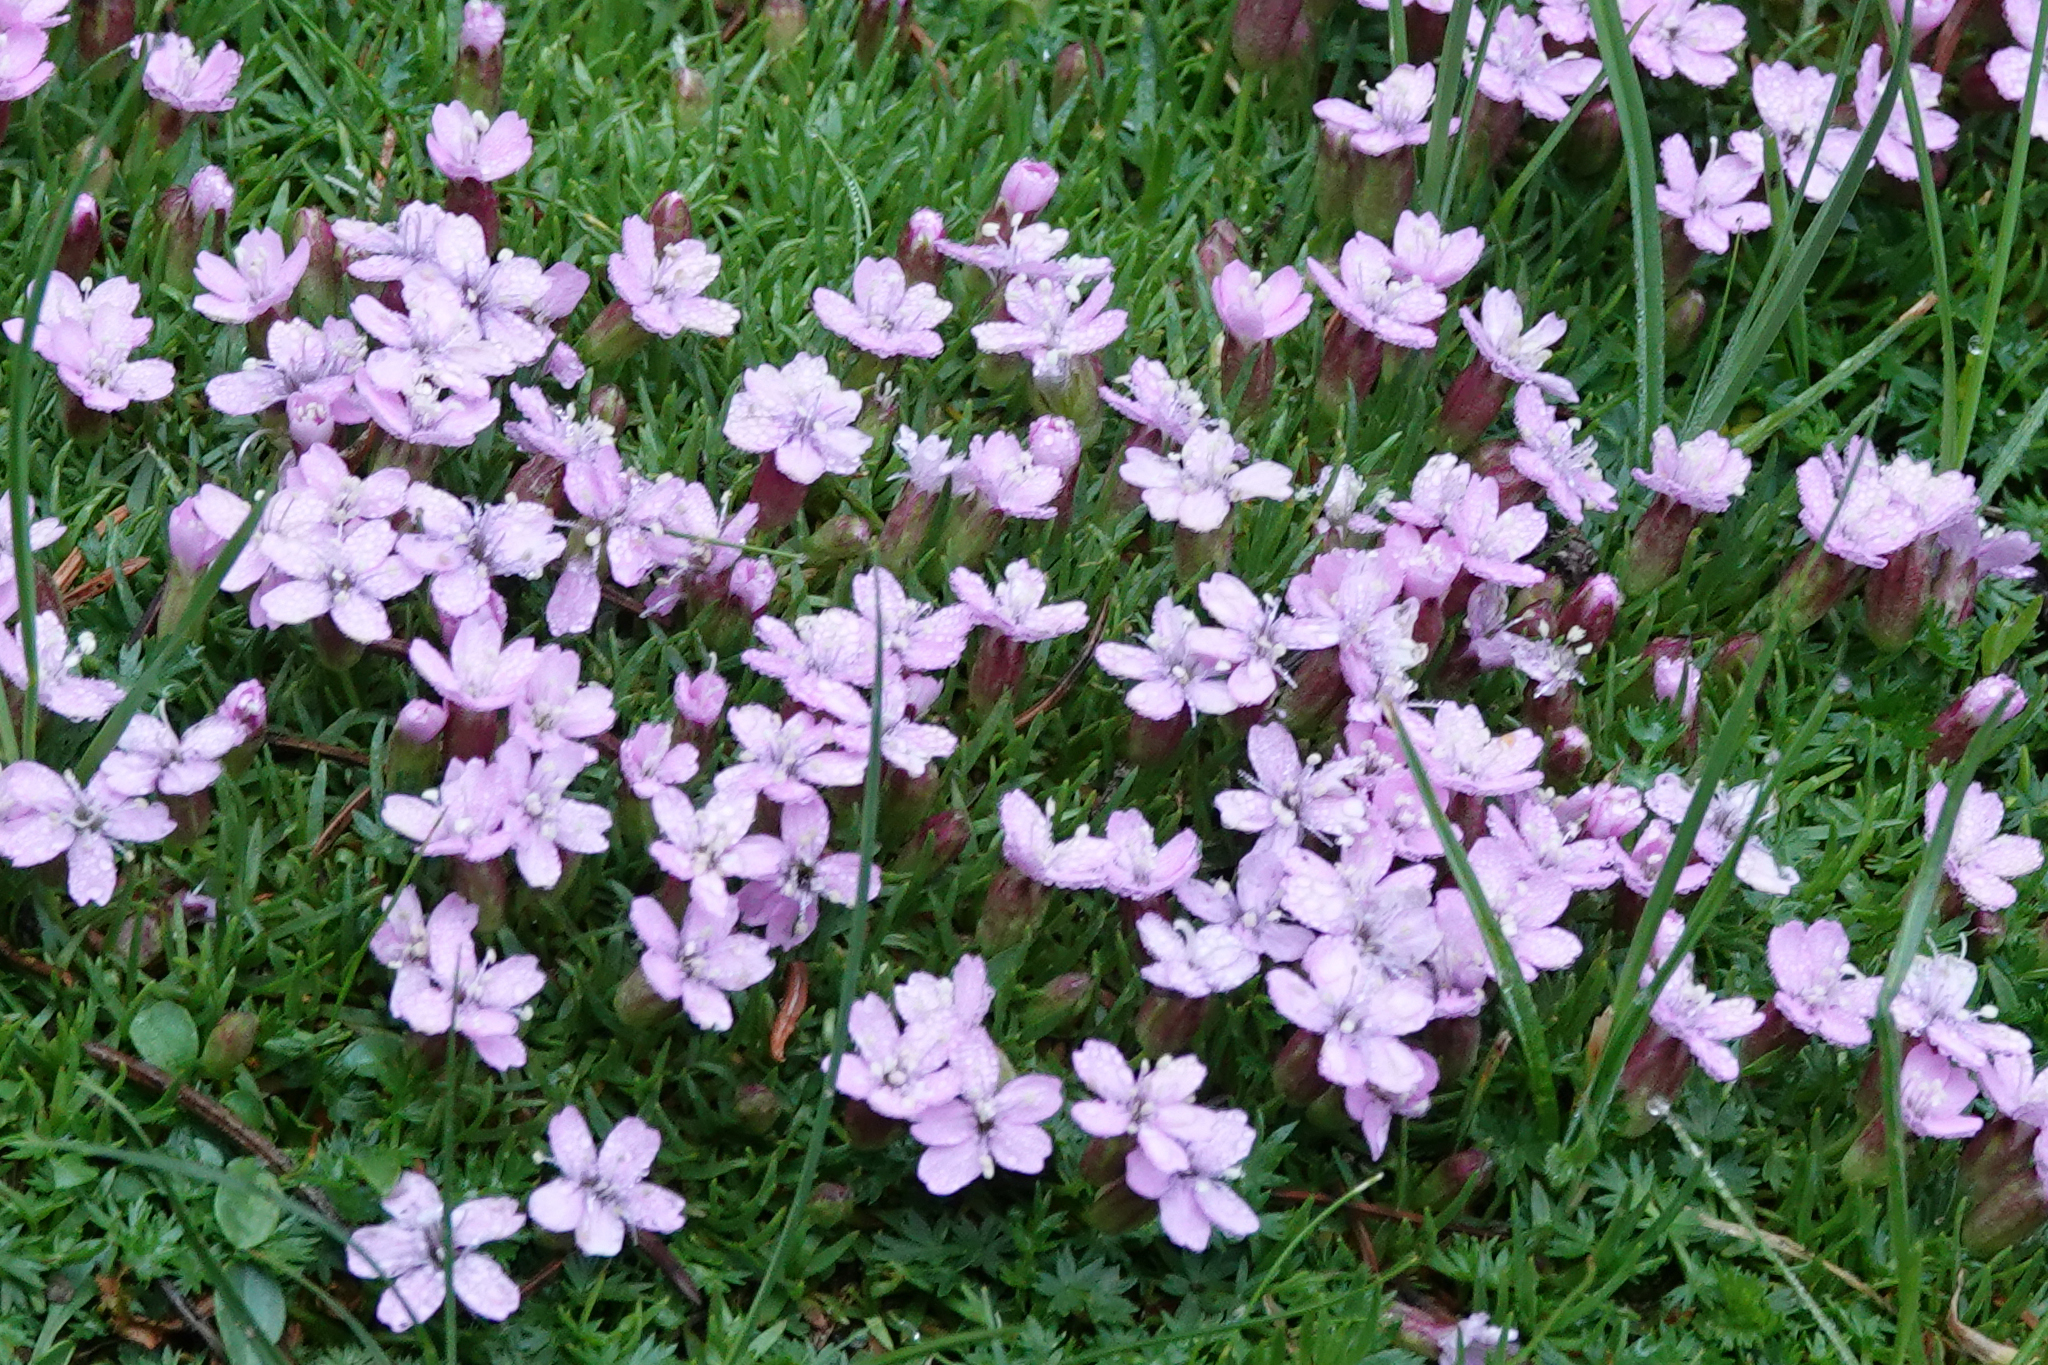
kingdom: Plantae
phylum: Tracheophyta
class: Magnoliopsida
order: Caryophyllales
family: Caryophyllaceae
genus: Silene
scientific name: Silene acaulis
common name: Moss campion
